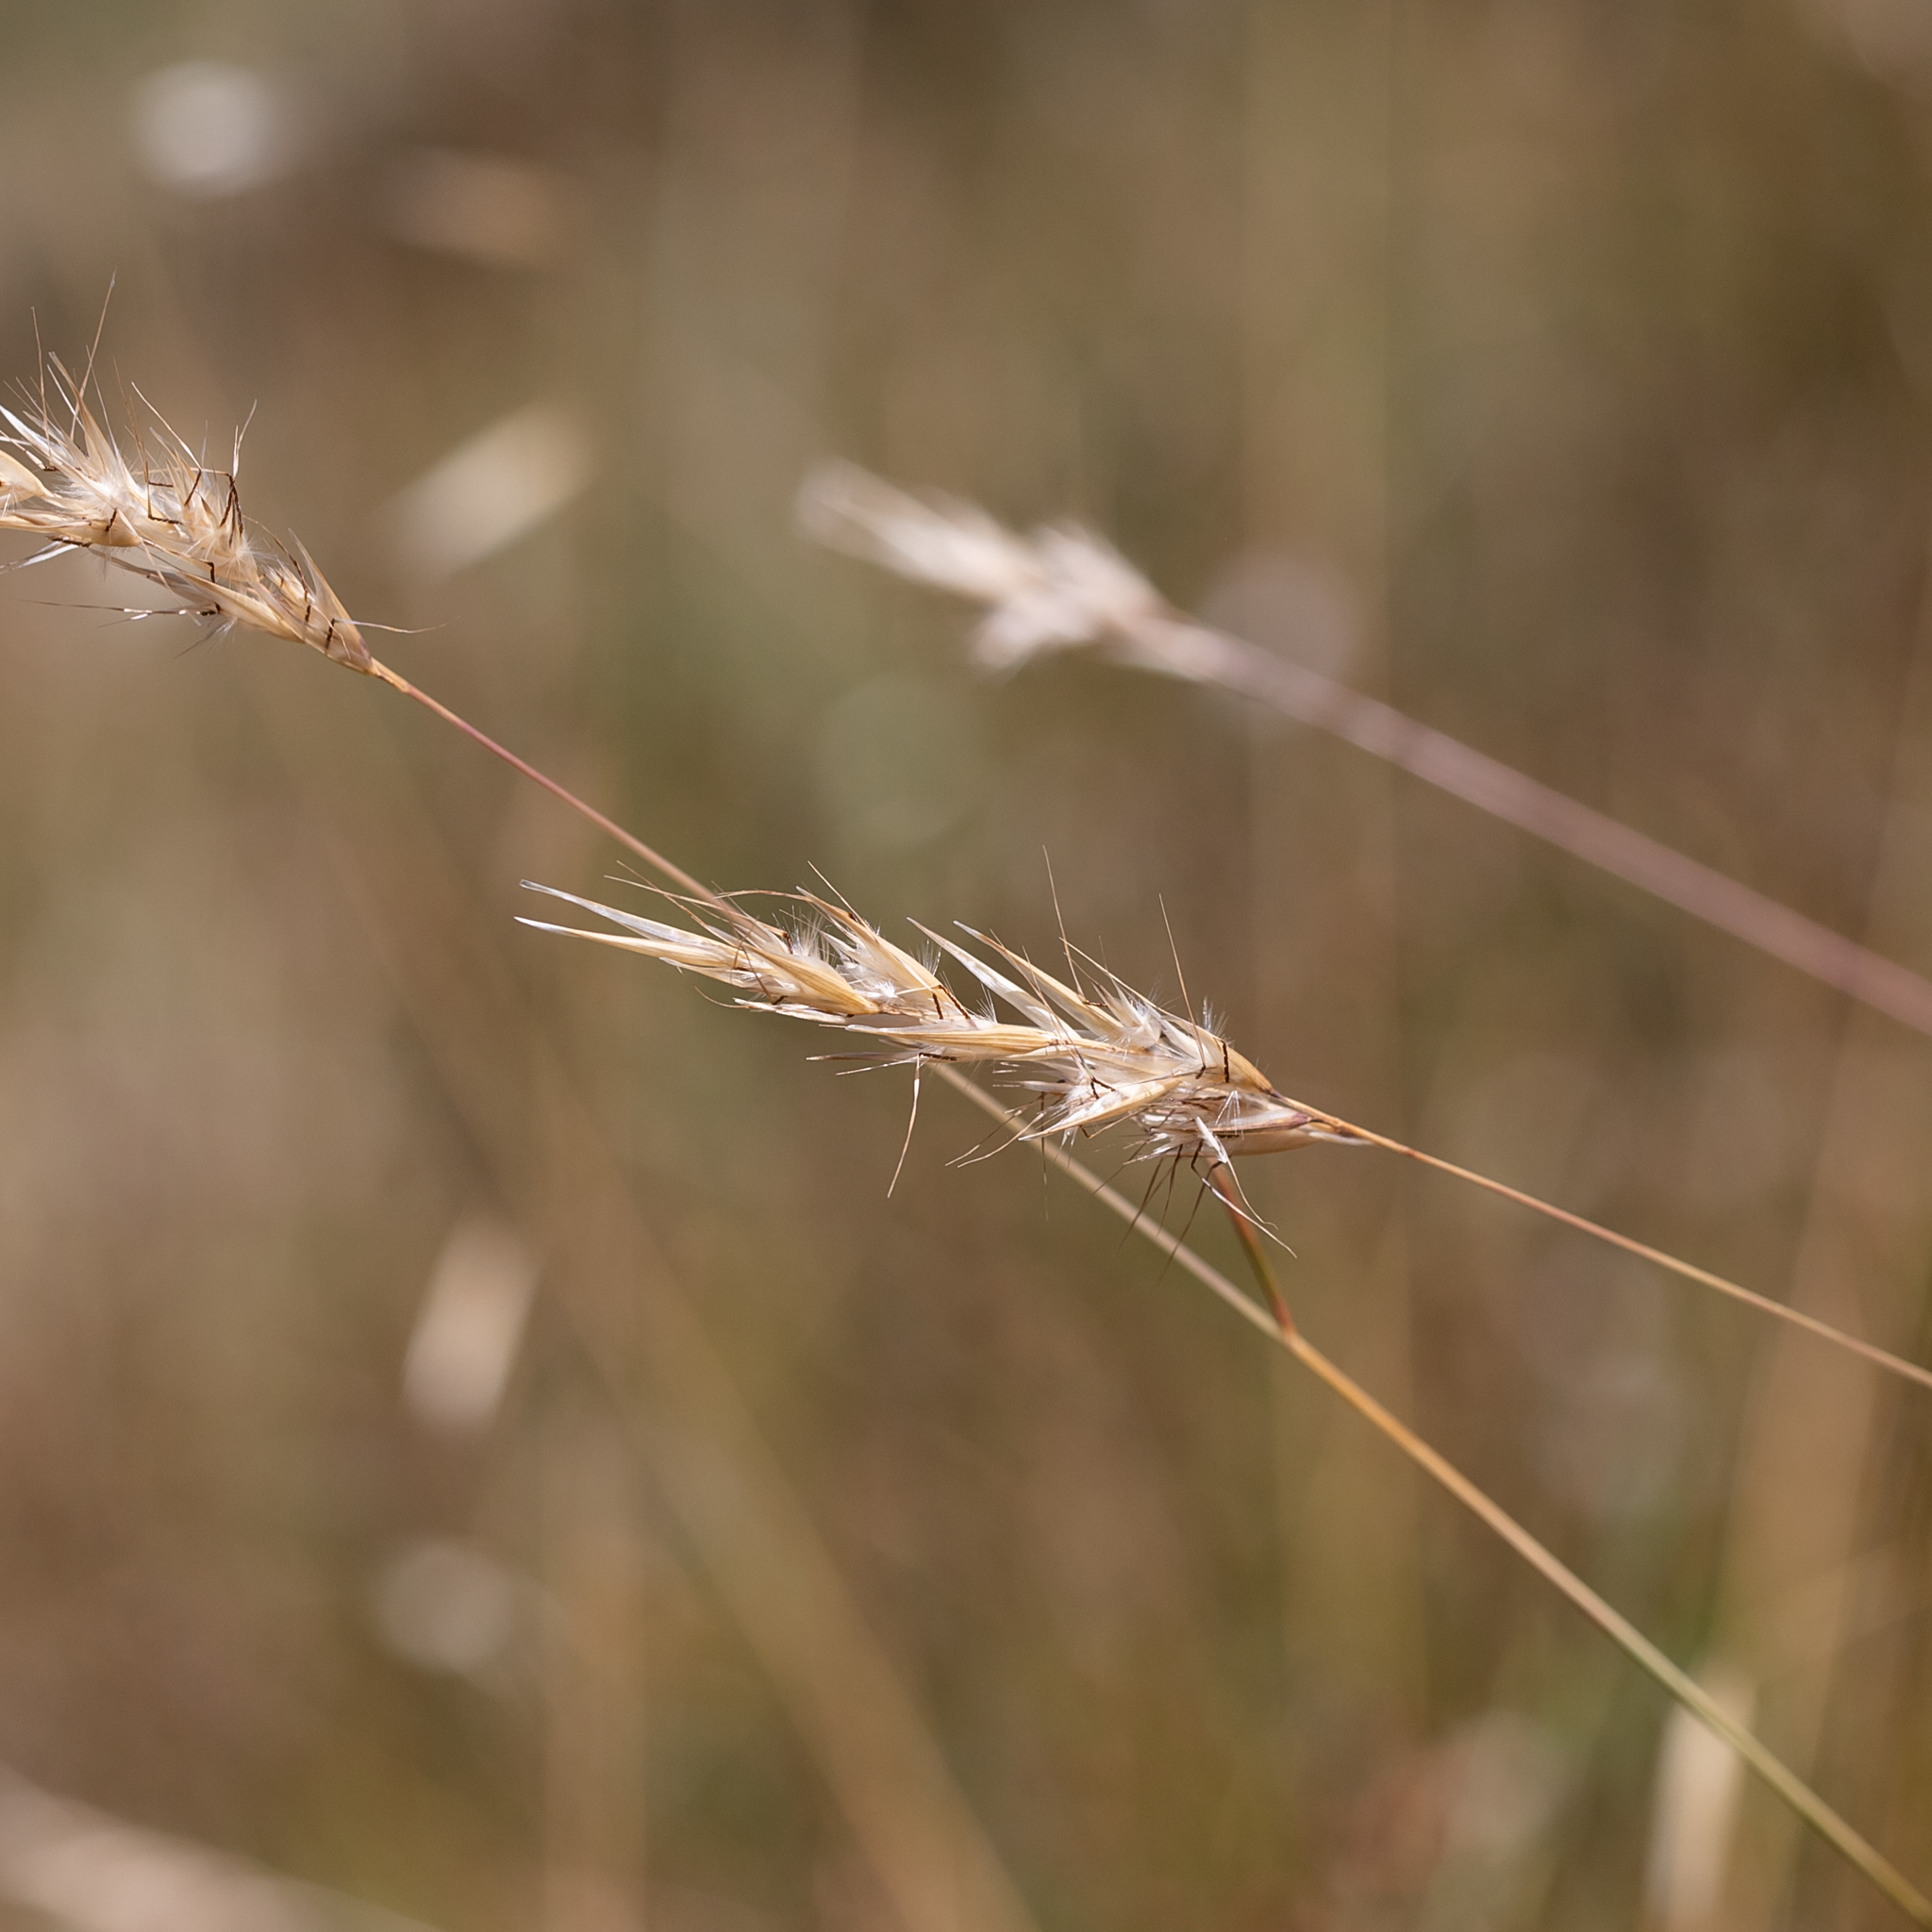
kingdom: Plantae
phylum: Tracheophyta
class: Liliopsida
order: Poales
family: Poaceae
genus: Rytidosperma
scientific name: Rytidosperma caespitosum
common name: Tufted wallaby grass
